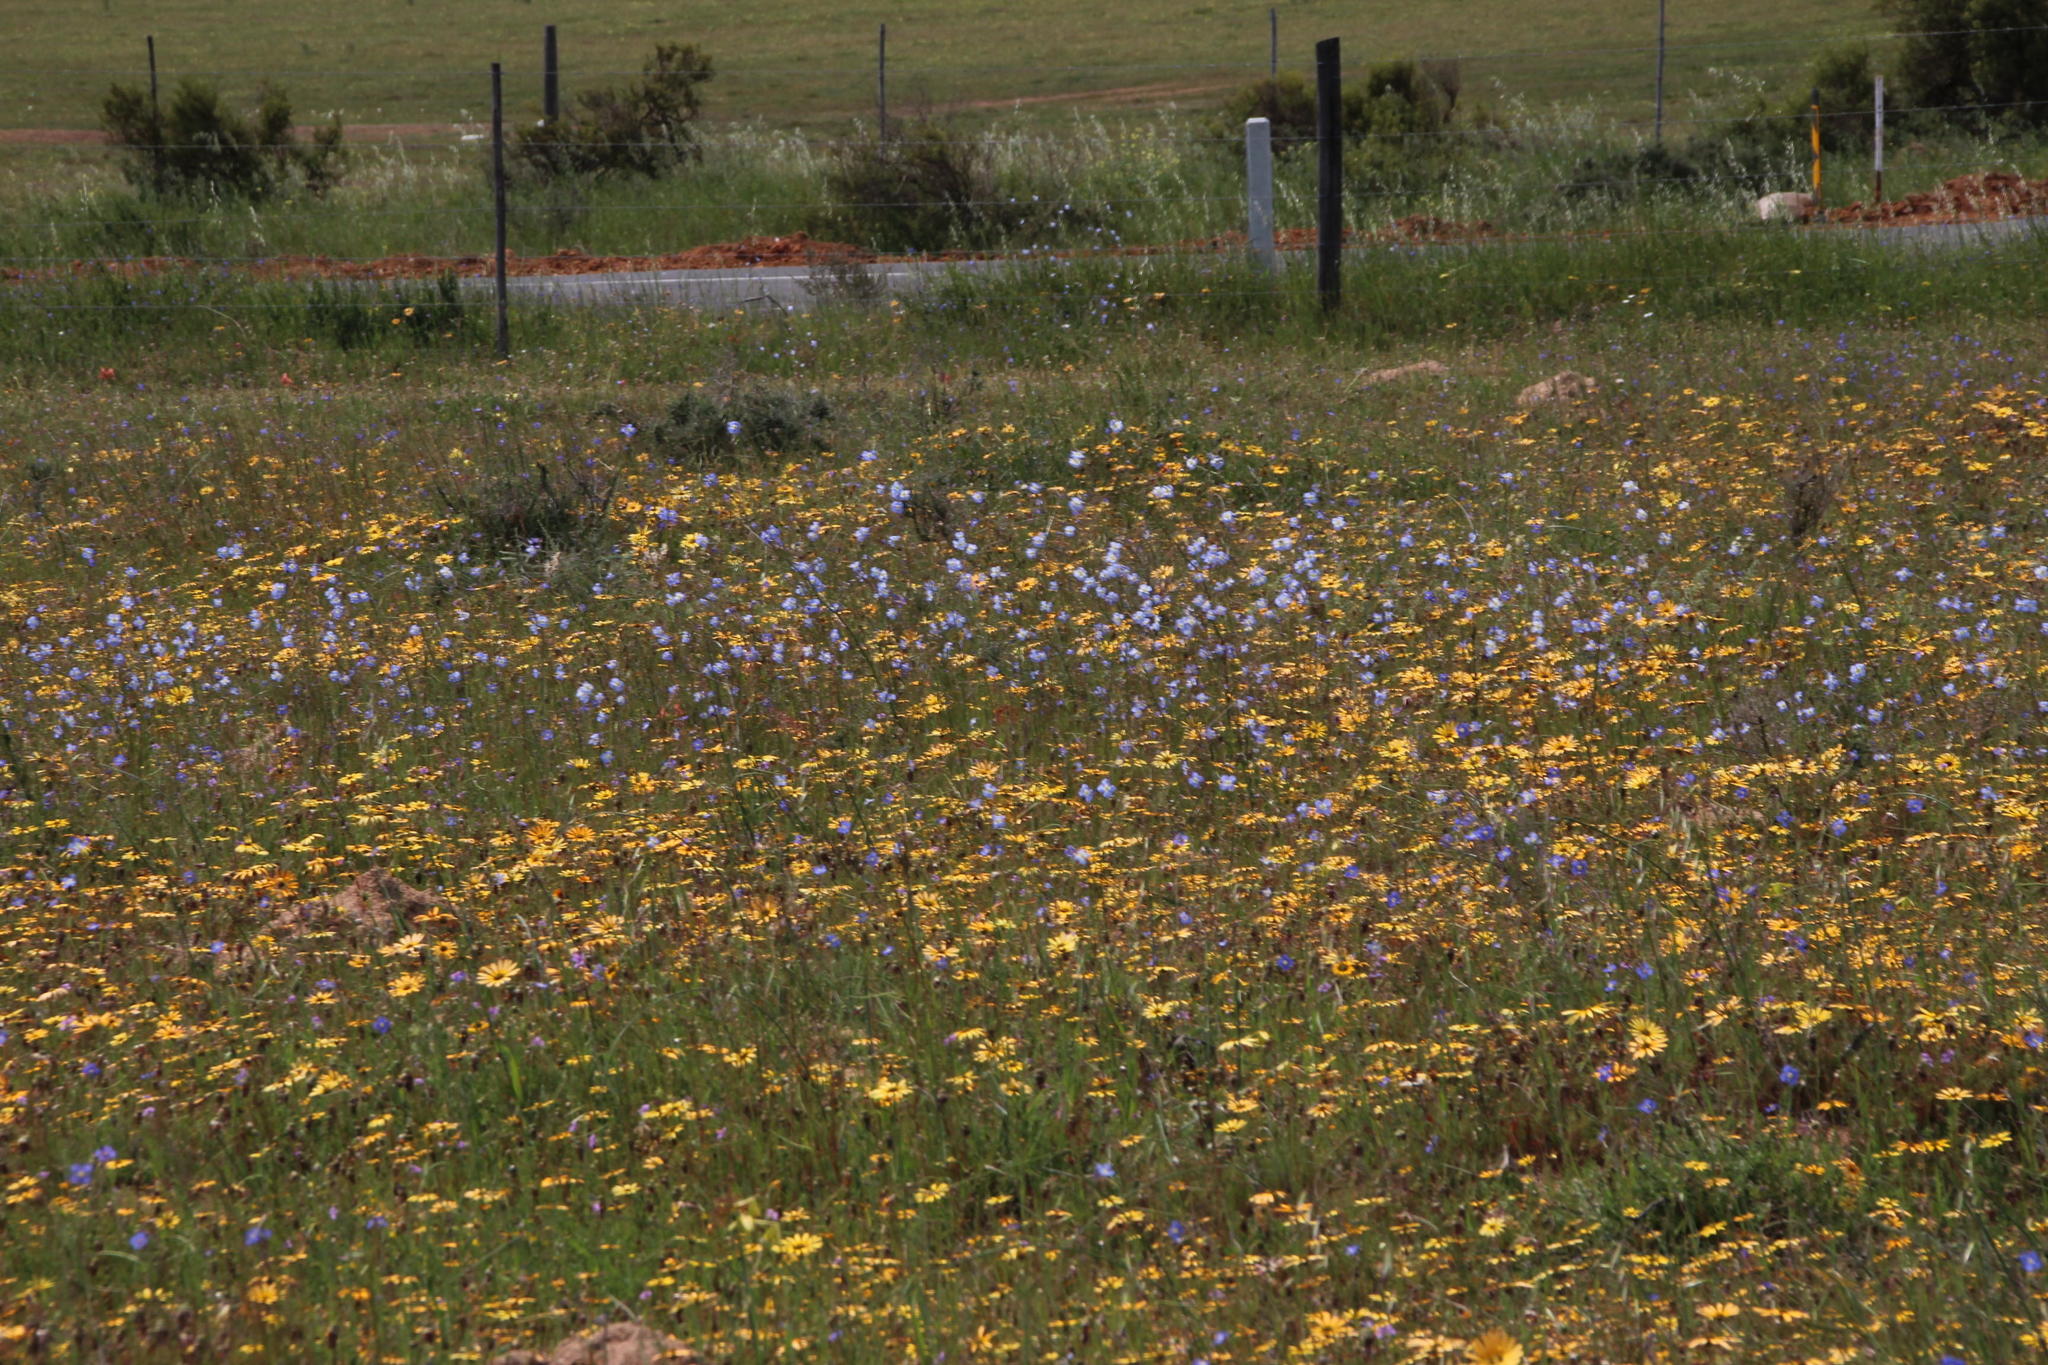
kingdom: Plantae
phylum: Tracheophyta
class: Magnoliopsida
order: Brassicales
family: Brassicaceae
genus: Heliophila
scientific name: Heliophila africana
